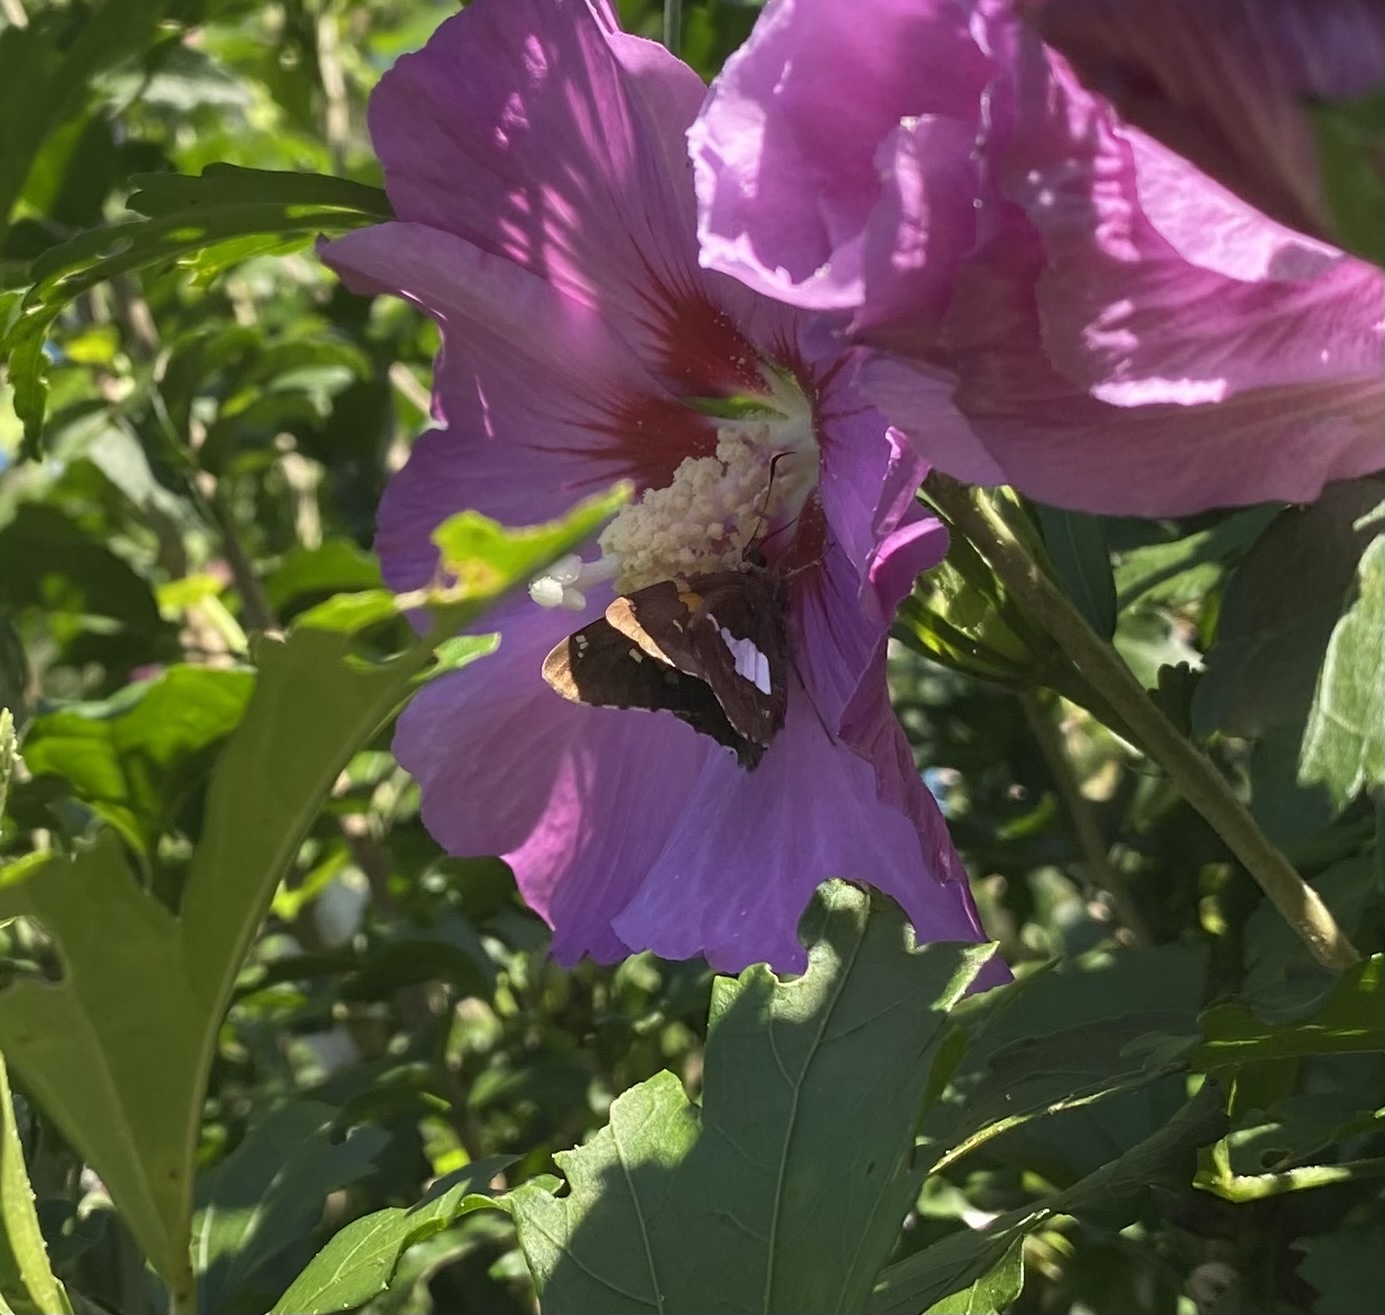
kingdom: Animalia
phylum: Arthropoda
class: Insecta
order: Lepidoptera
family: Hesperiidae
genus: Epargyreus
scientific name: Epargyreus clarus
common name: Silver-spotted skipper
